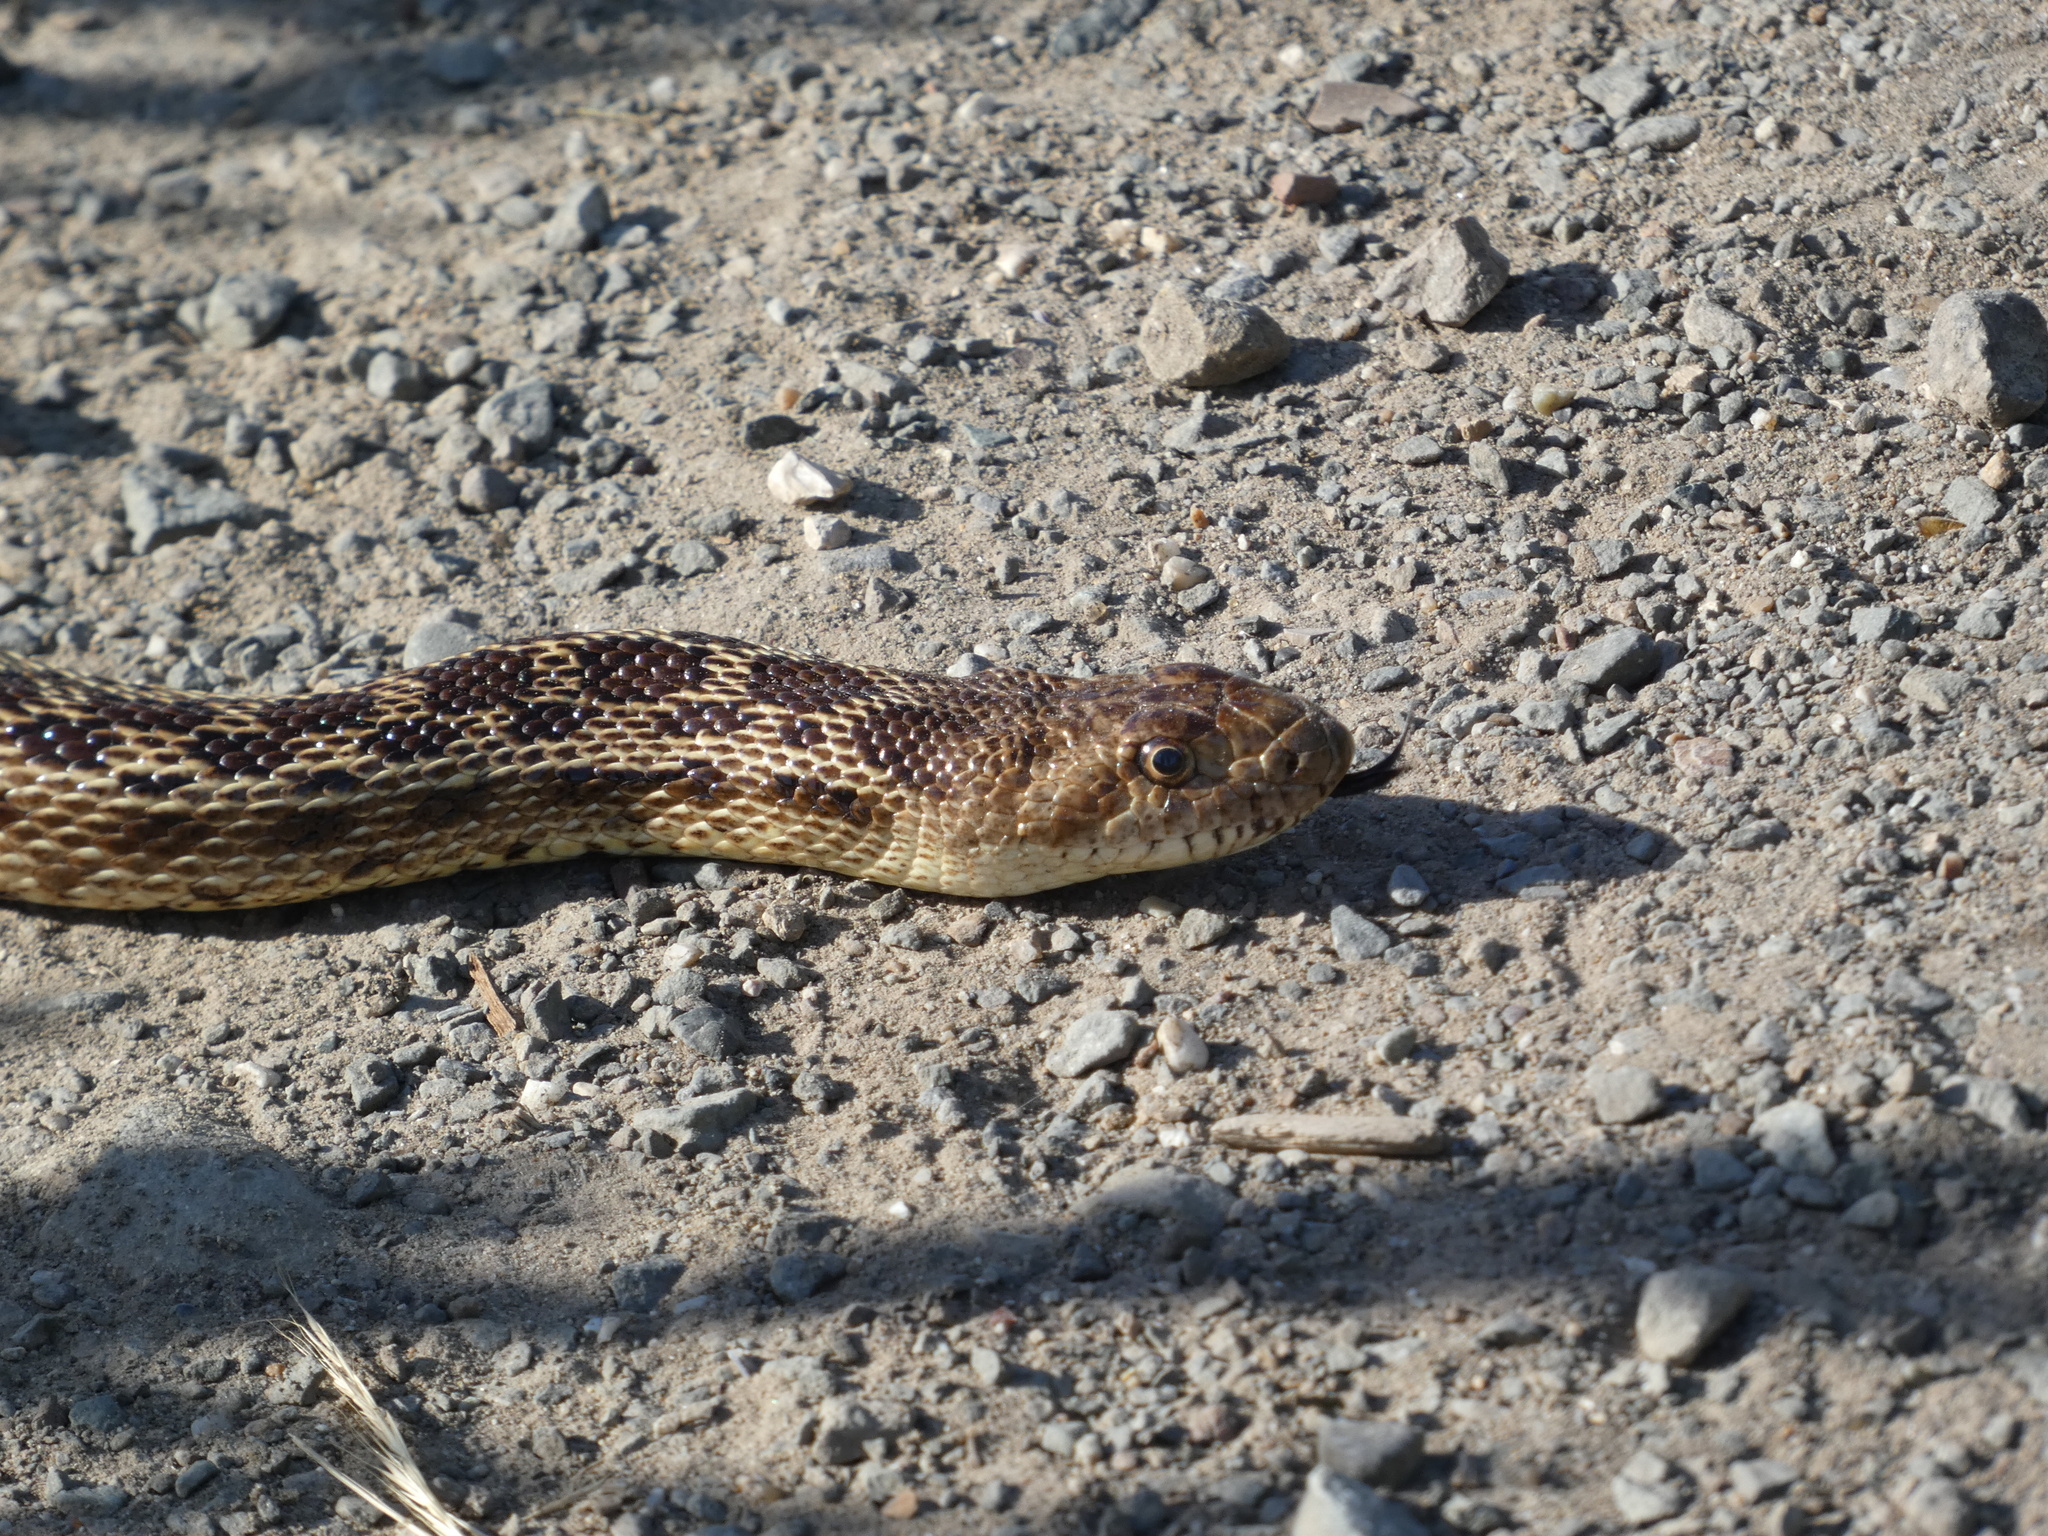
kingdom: Animalia
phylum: Chordata
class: Squamata
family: Colubridae
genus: Pituophis
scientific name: Pituophis catenifer
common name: Gopher snake
